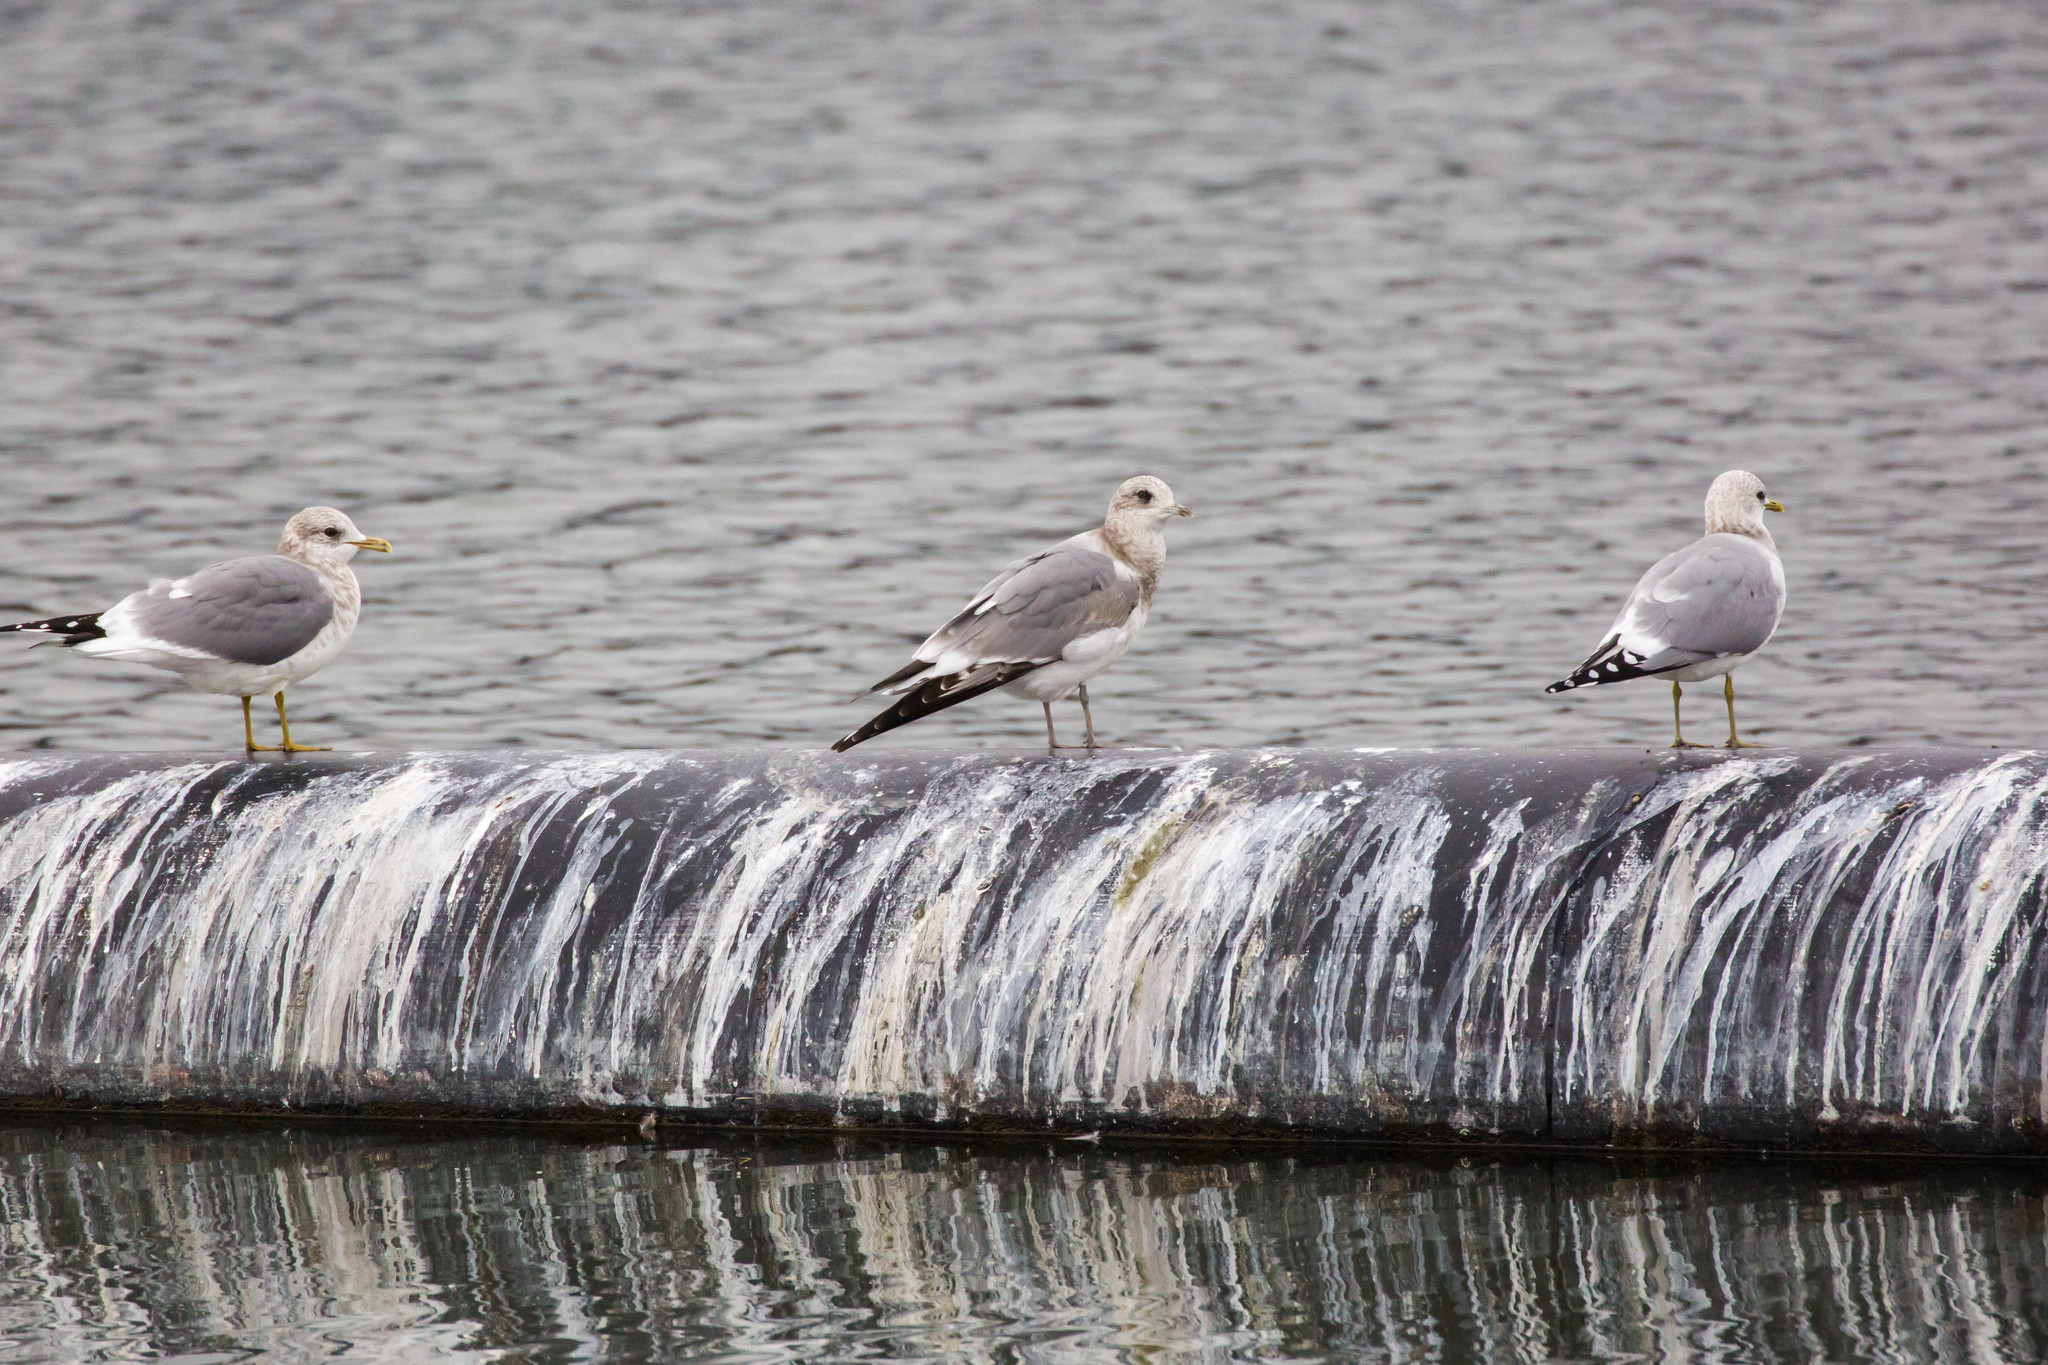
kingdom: Animalia
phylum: Chordata
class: Aves
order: Charadriiformes
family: Laridae
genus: Larus
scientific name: Larus brachyrhynchus
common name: Short-billed gull
